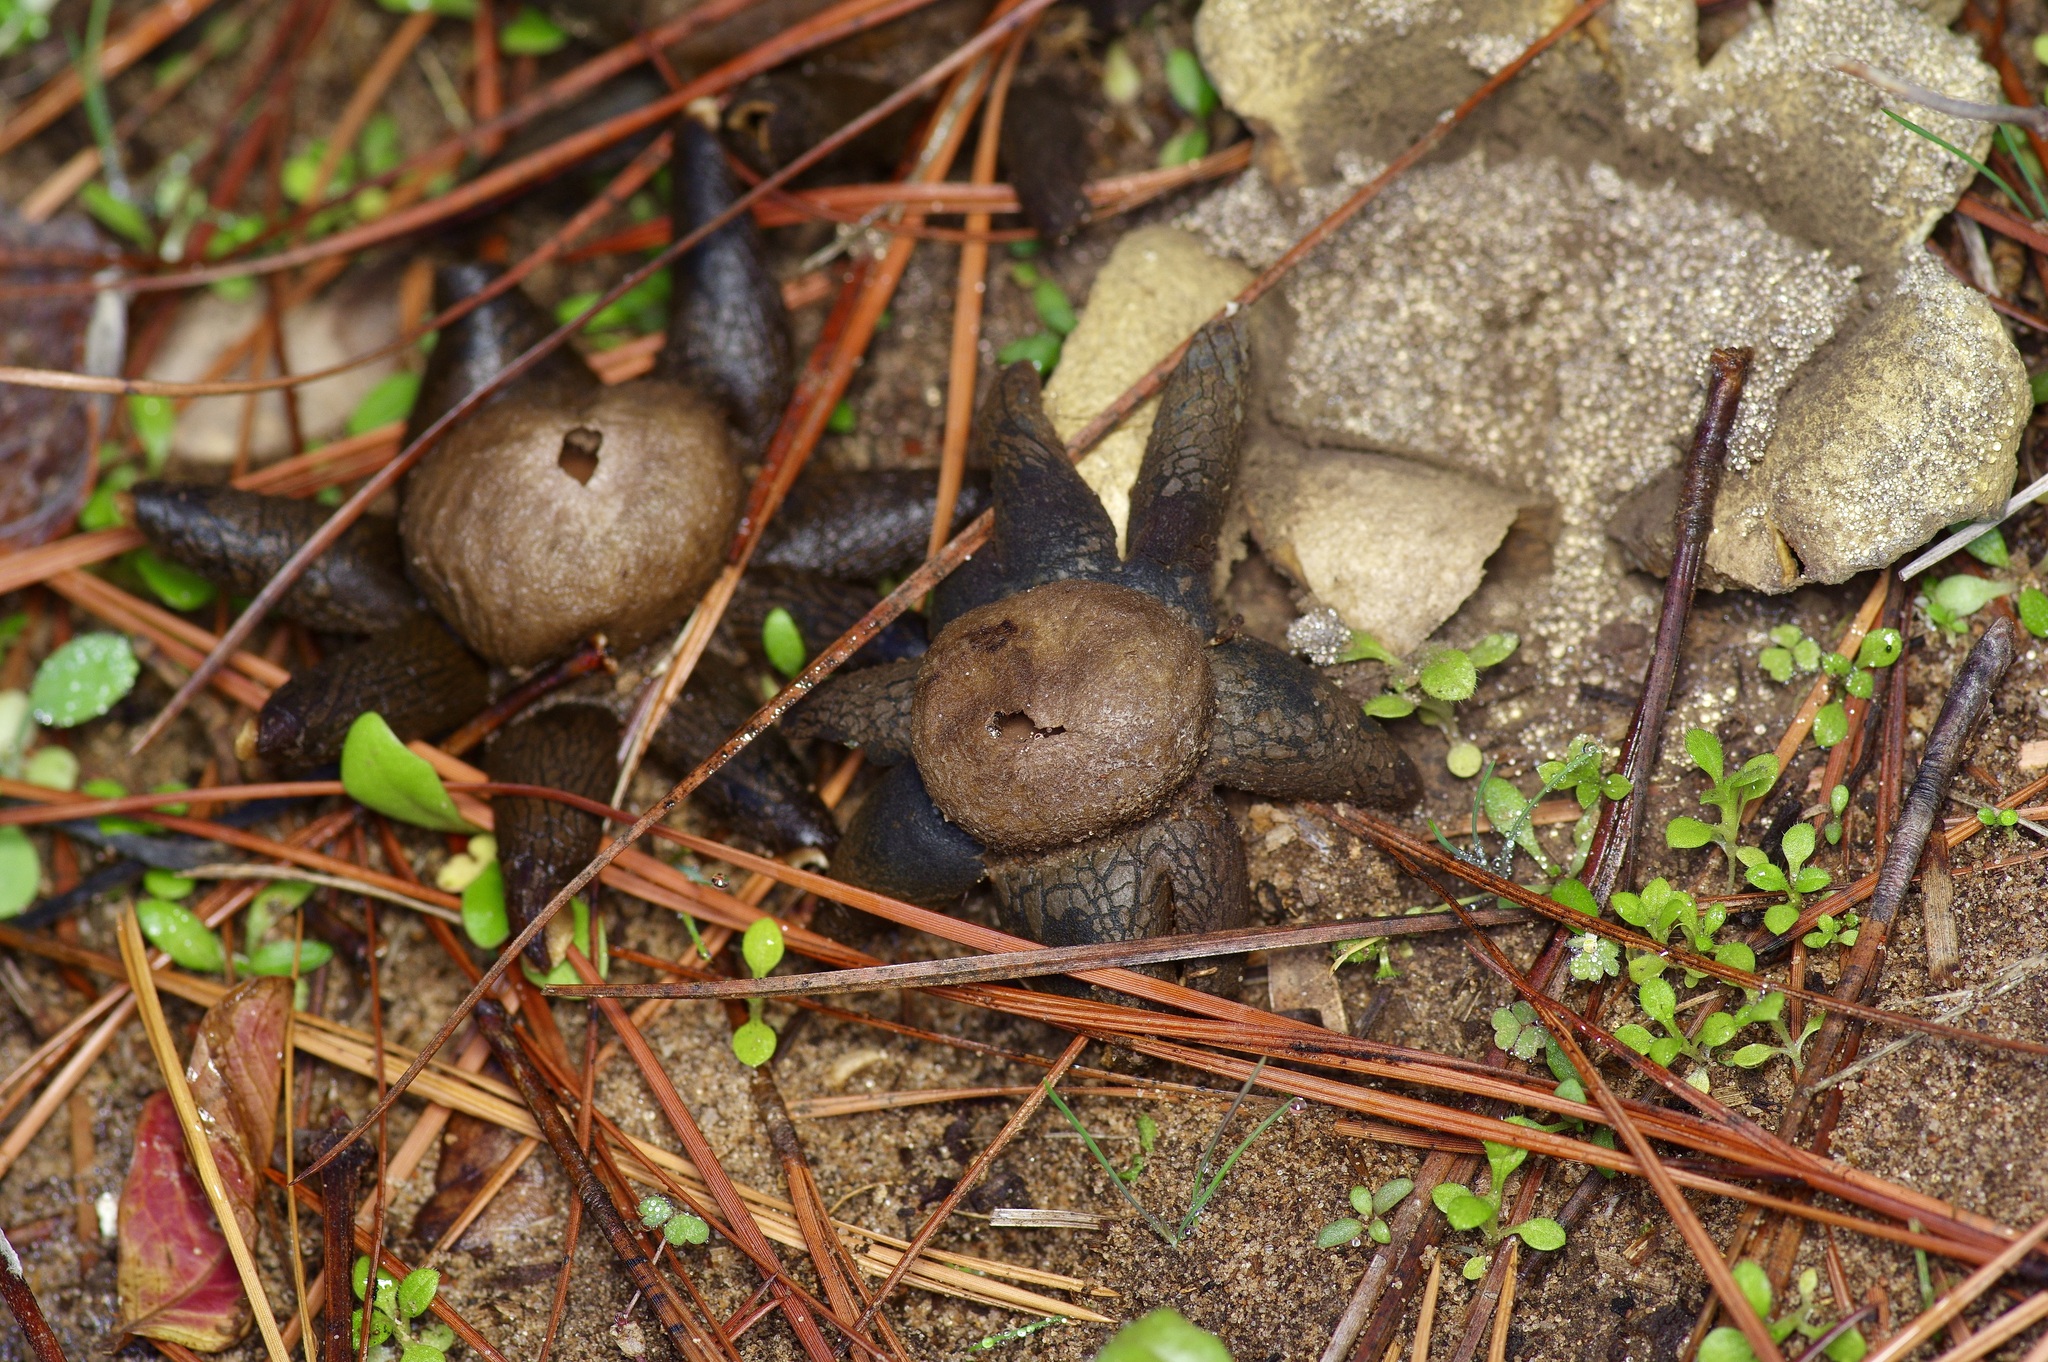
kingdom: Fungi
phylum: Basidiomycota
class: Agaricomycetes
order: Boletales
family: Diplocystidiaceae
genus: Astraeus
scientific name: Astraeus morganii
